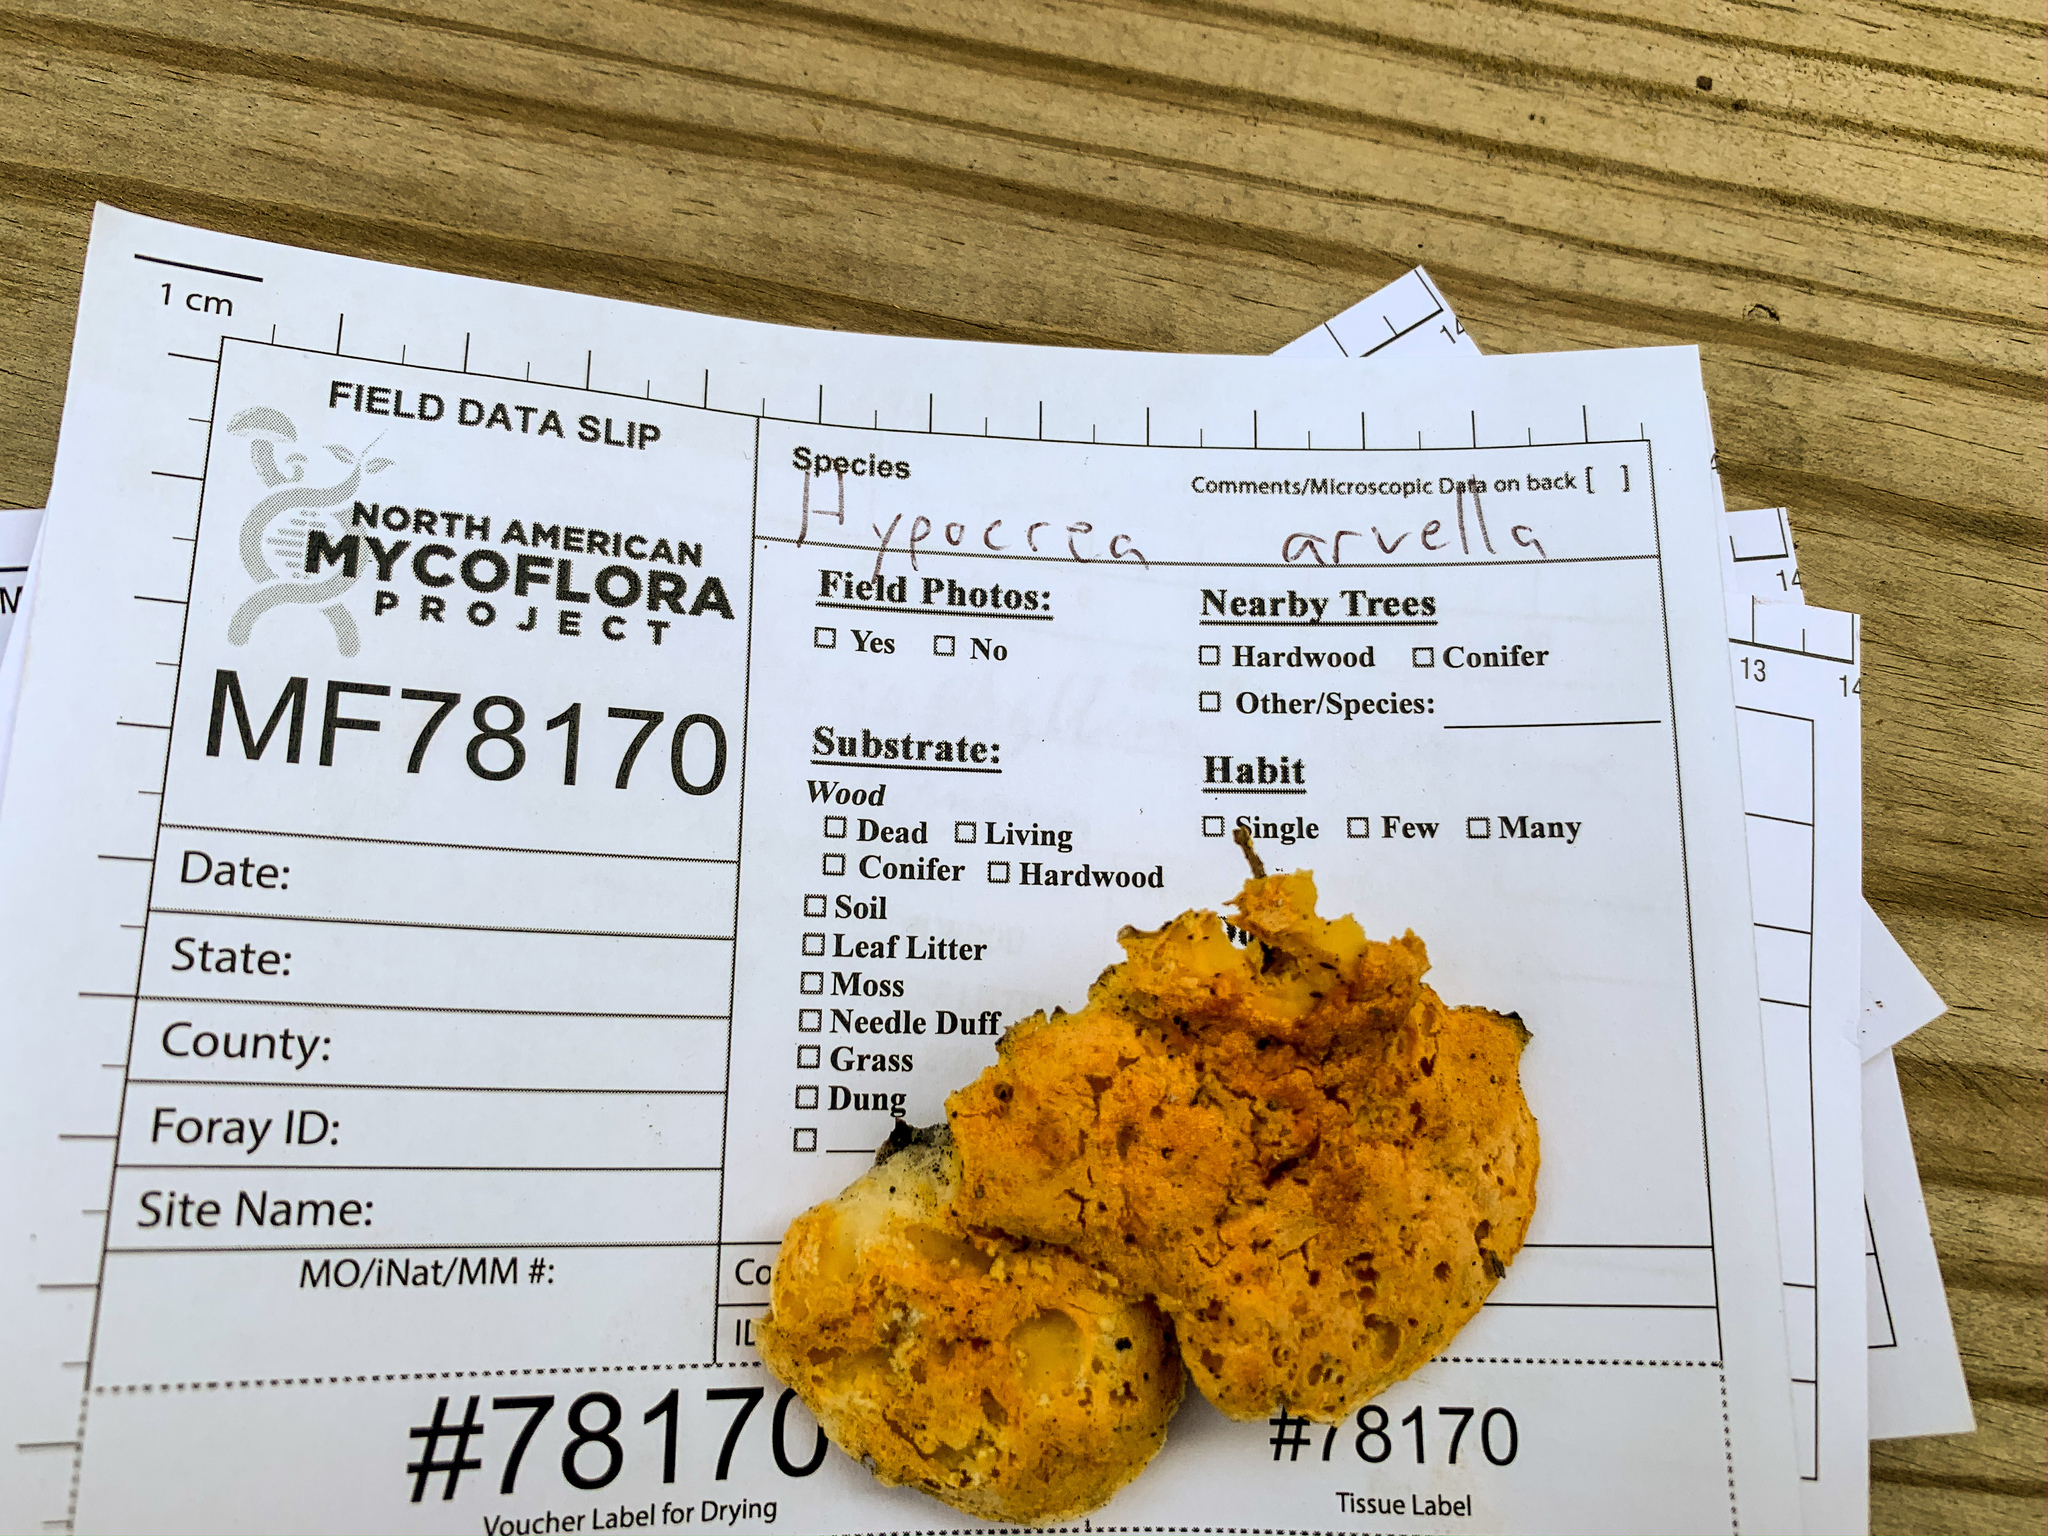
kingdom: Fungi
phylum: Ascomycota
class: Sordariomycetes
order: Hypocreales
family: Hypocreaceae
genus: Protocrea
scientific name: Protocrea pallida
